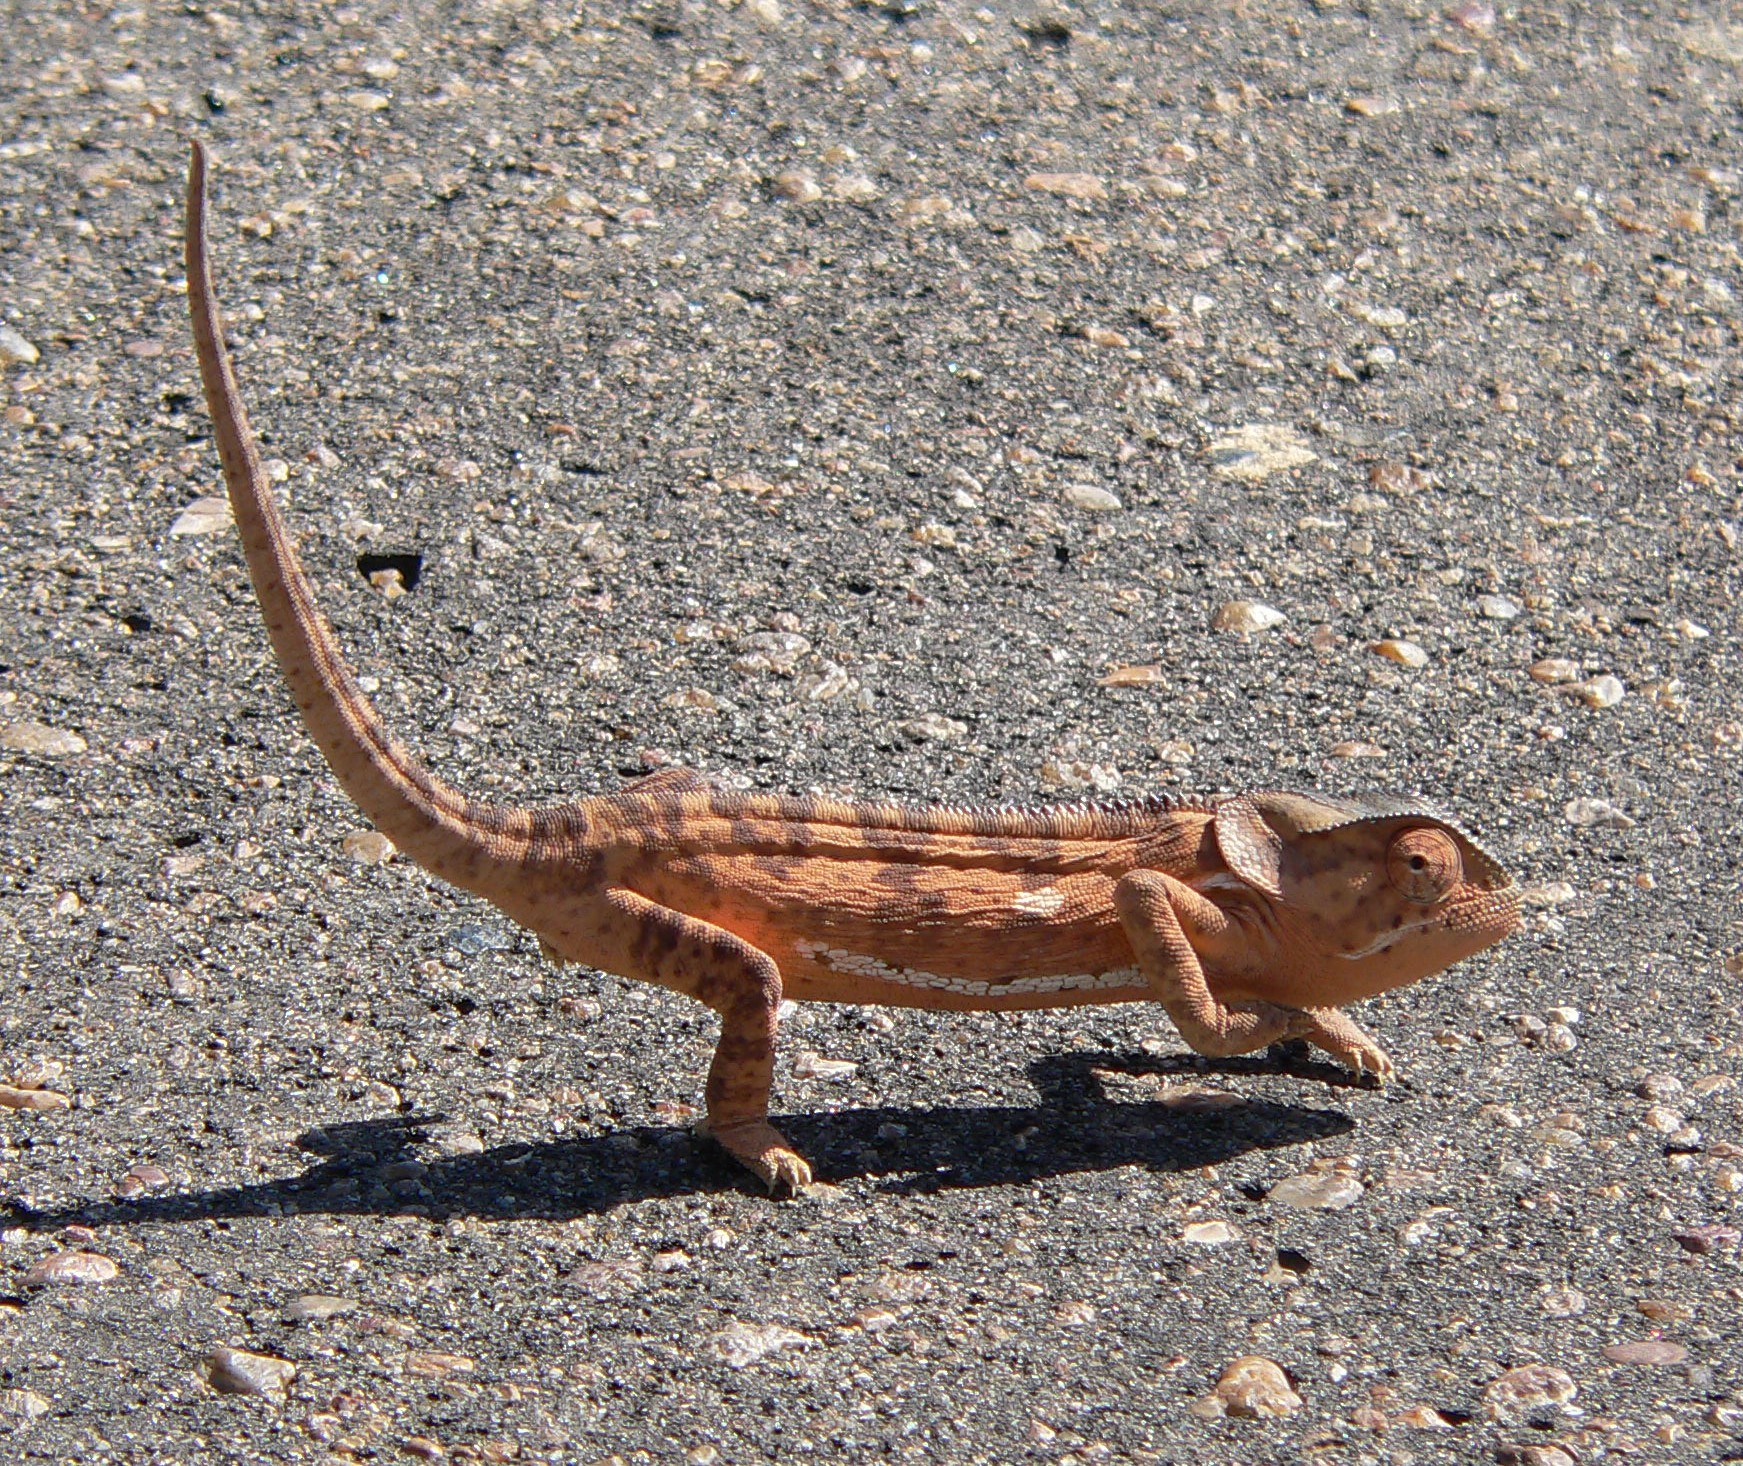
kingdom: Animalia
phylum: Chordata
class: Squamata
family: Chamaeleonidae
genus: Chamaeleo
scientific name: Chamaeleo dilepis
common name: Flapneck chameleon
